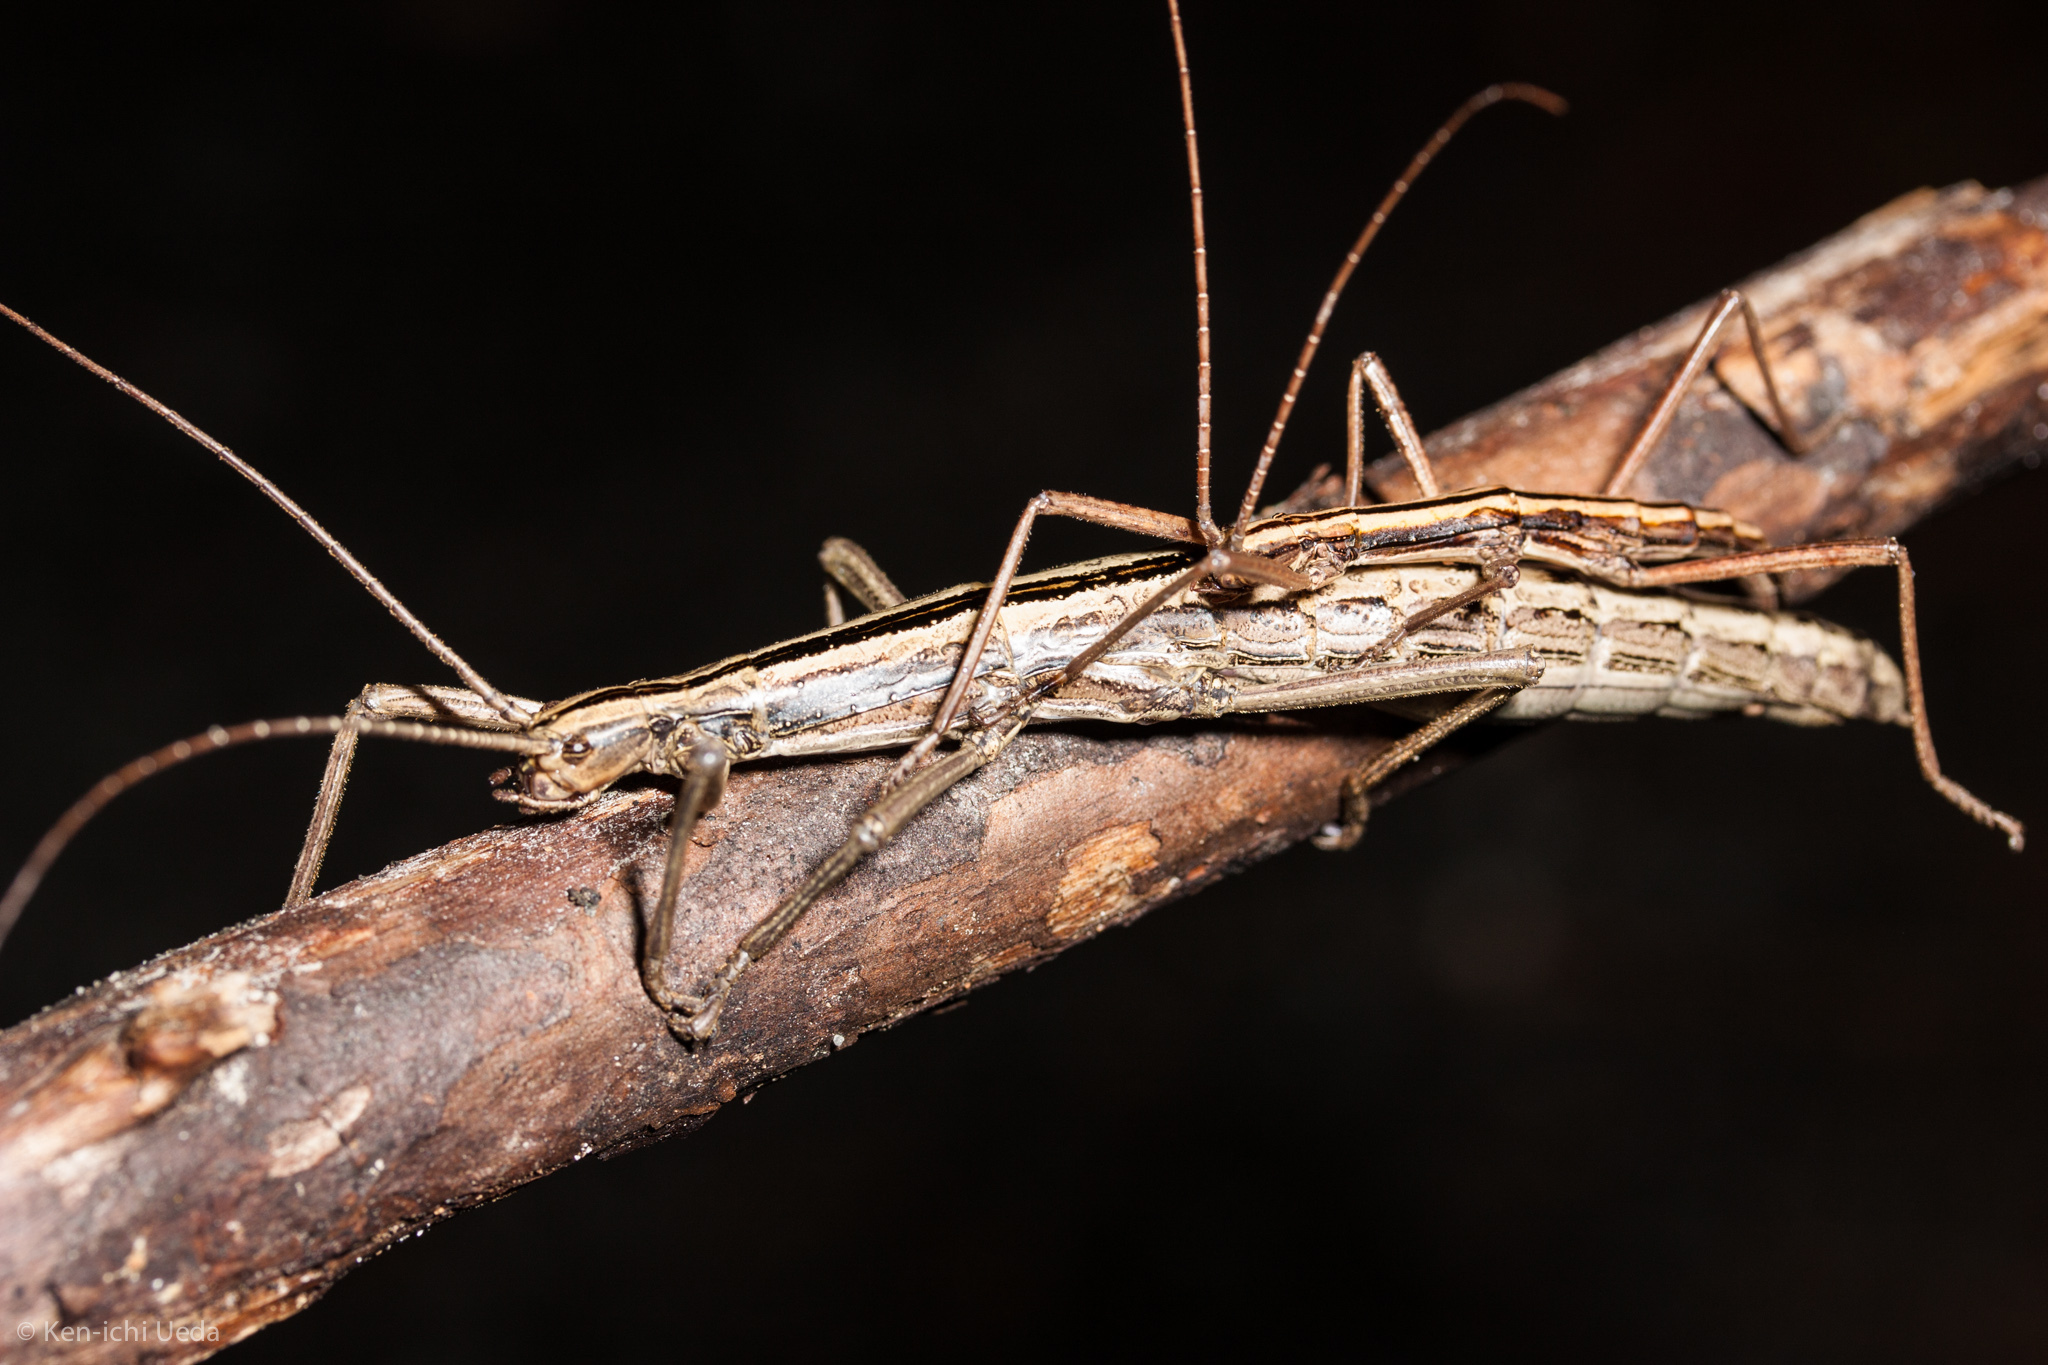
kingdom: Animalia
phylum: Arthropoda
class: Insecta
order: Phasmida
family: Pseudophasmatidae
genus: Anisomorpha
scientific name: Anisomorpha buprestoides
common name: Florida stick insect
